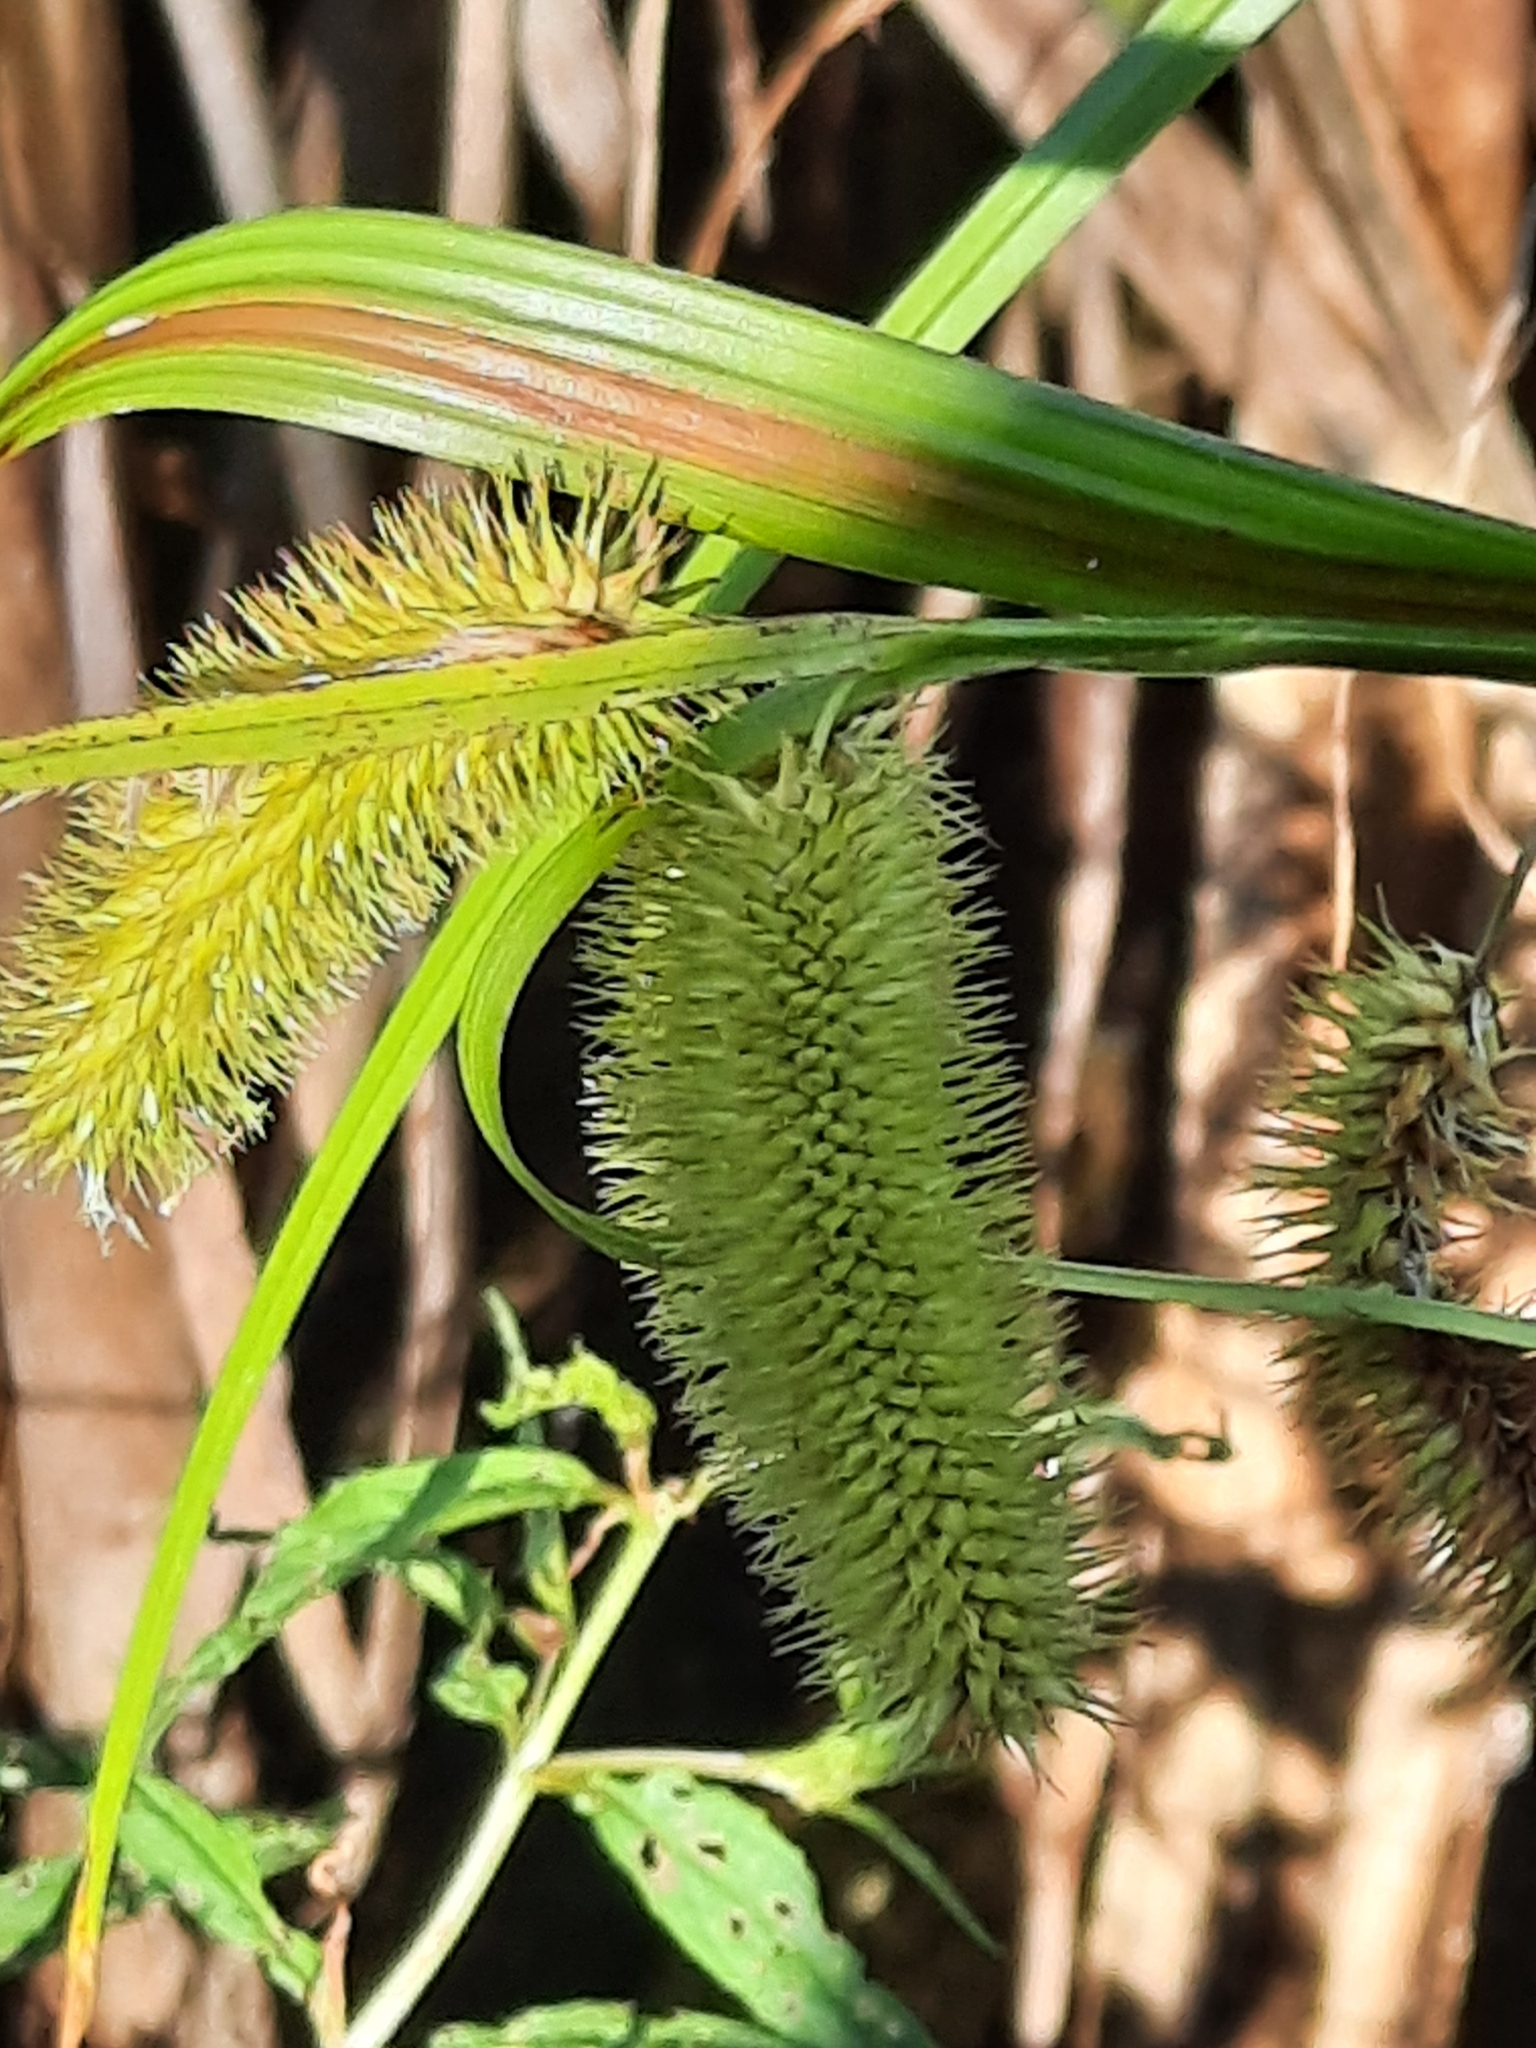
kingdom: Plantae
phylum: Tracheophyta
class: Liliopsida
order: Poales
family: Cyperaceae
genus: Carex
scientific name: Carex comosa
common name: Bristly sedge
